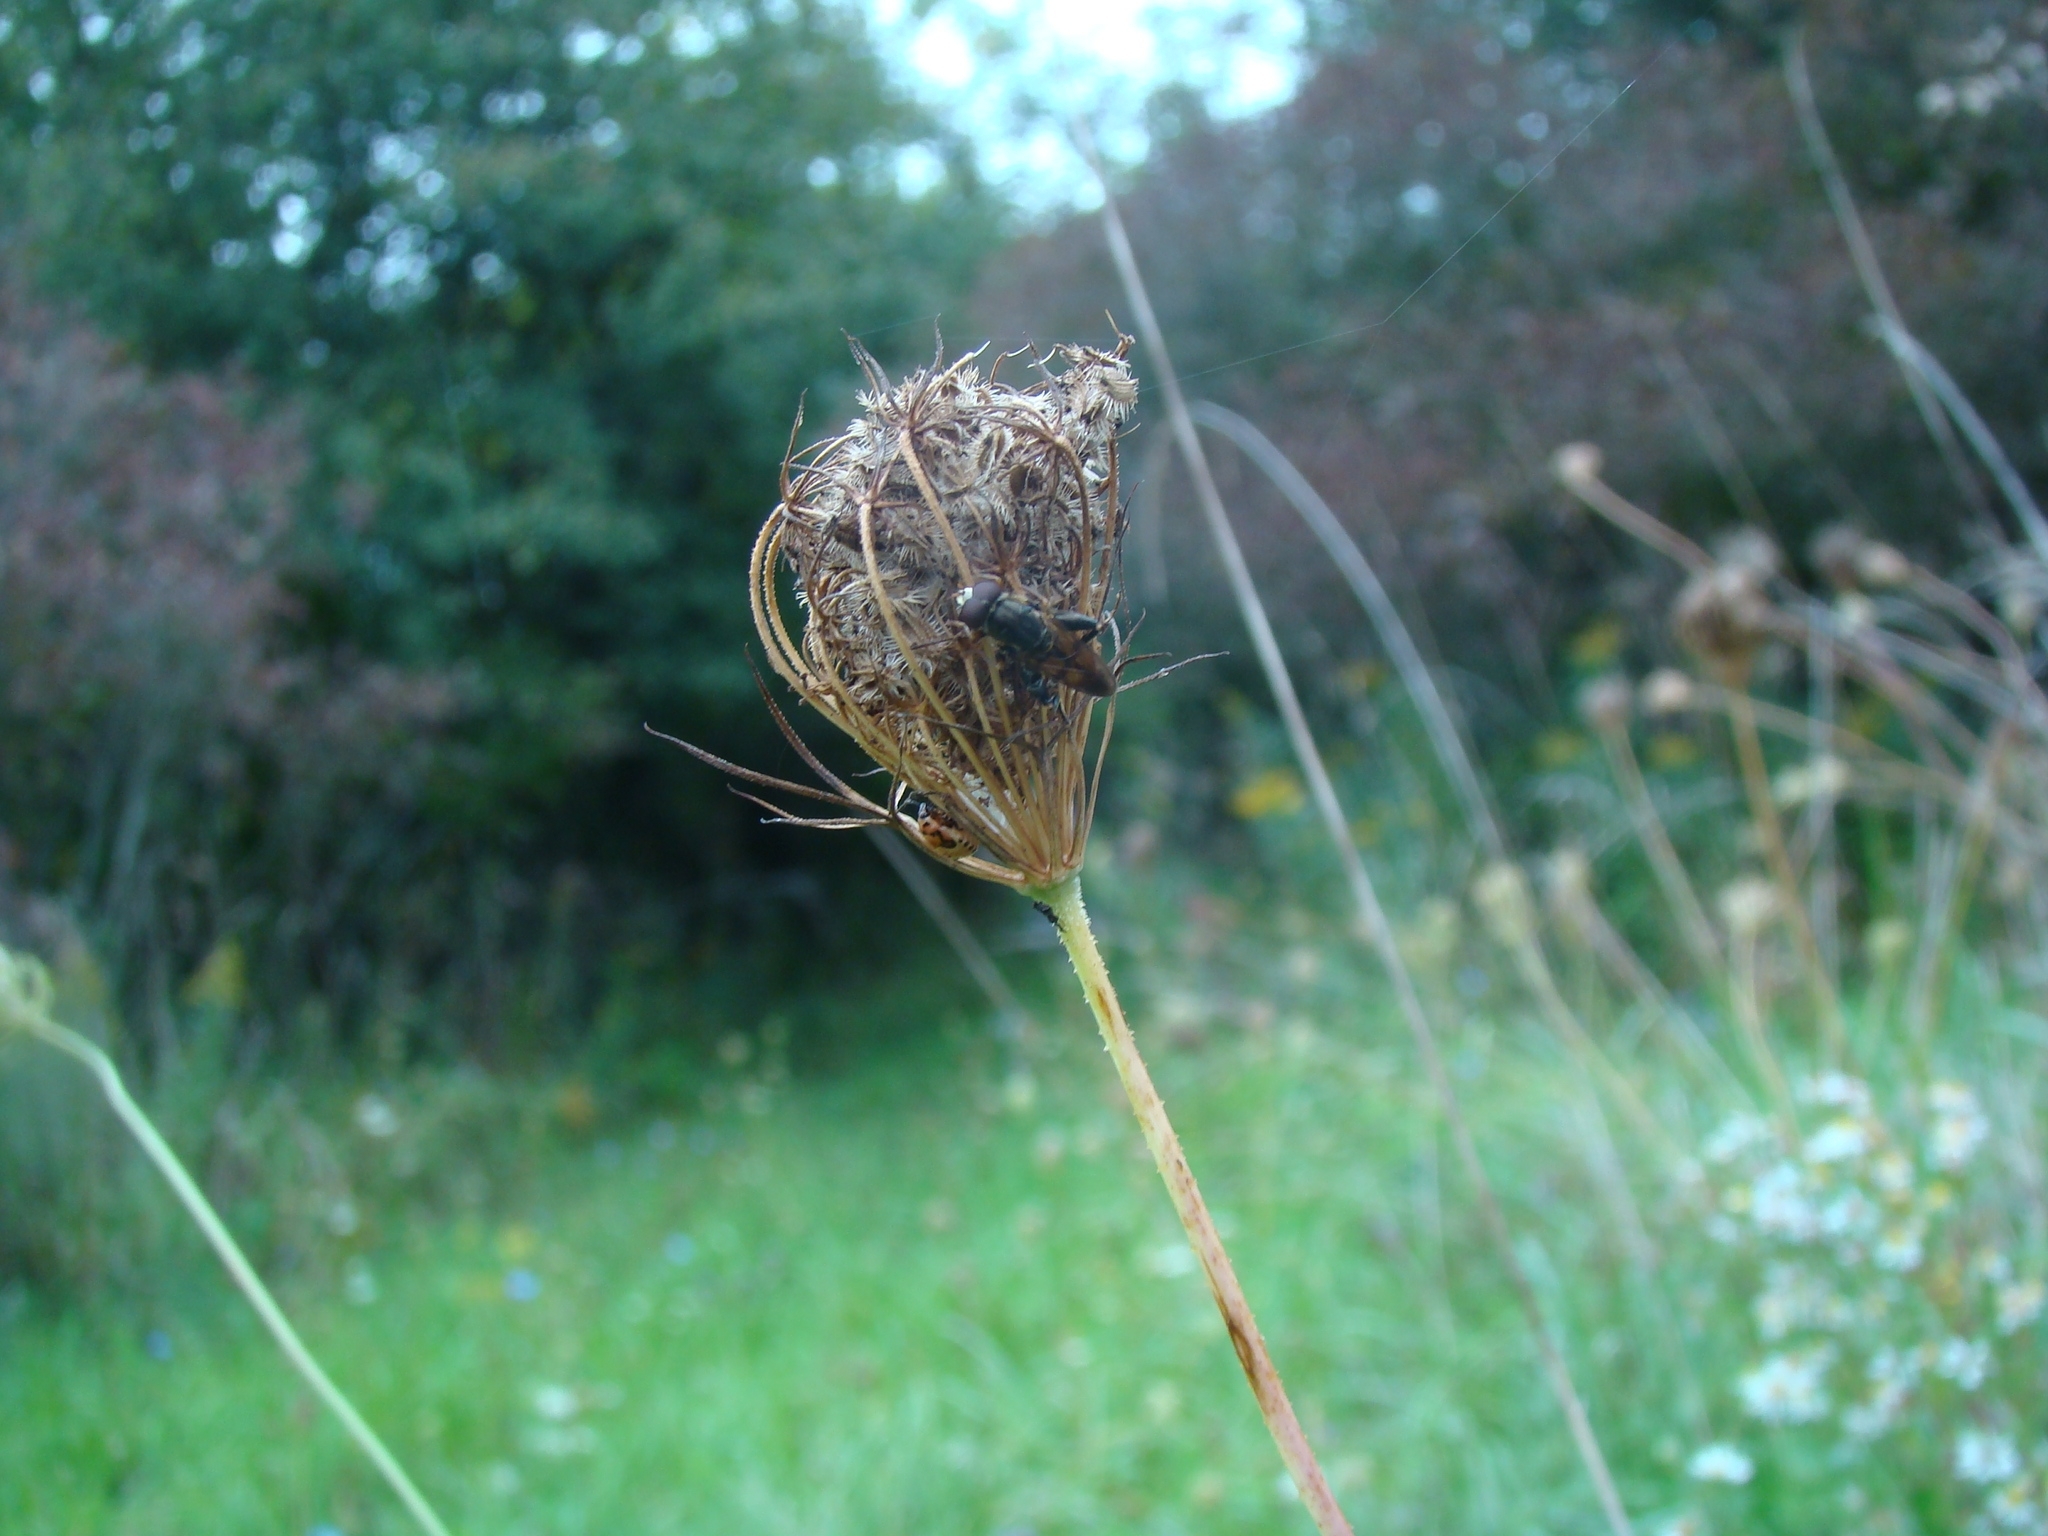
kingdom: Animalia
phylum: Arthropoda
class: Insecta
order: Diptera
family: Syrphidae
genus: Tropidia
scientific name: Tropidia quadrata
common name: Common thick-legged fly
